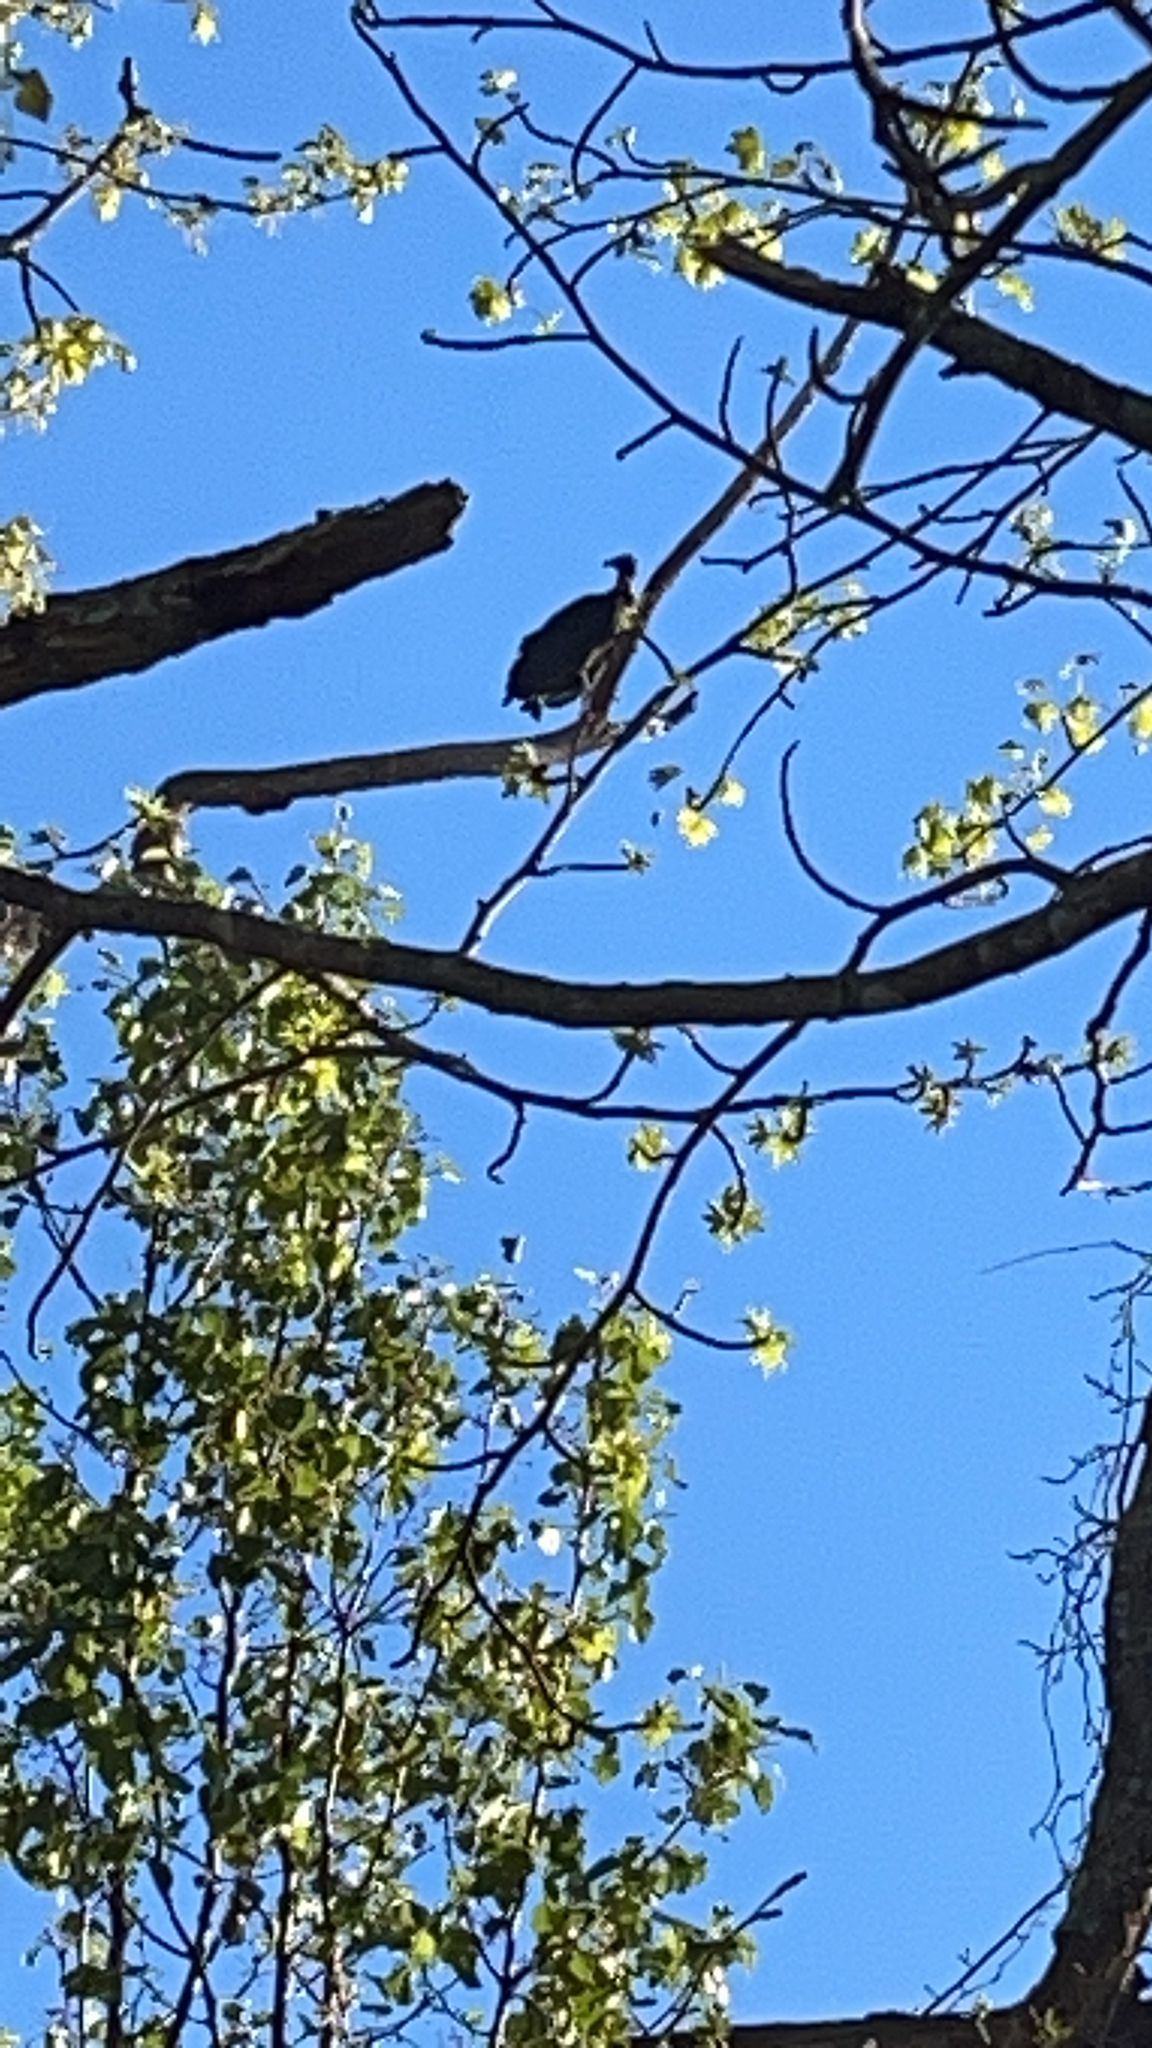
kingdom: Animalia
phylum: Chordata
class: Aves
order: Accipitriformes
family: Cathartidae
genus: Coragyps
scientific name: Coragyps atratus
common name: Black vulture
